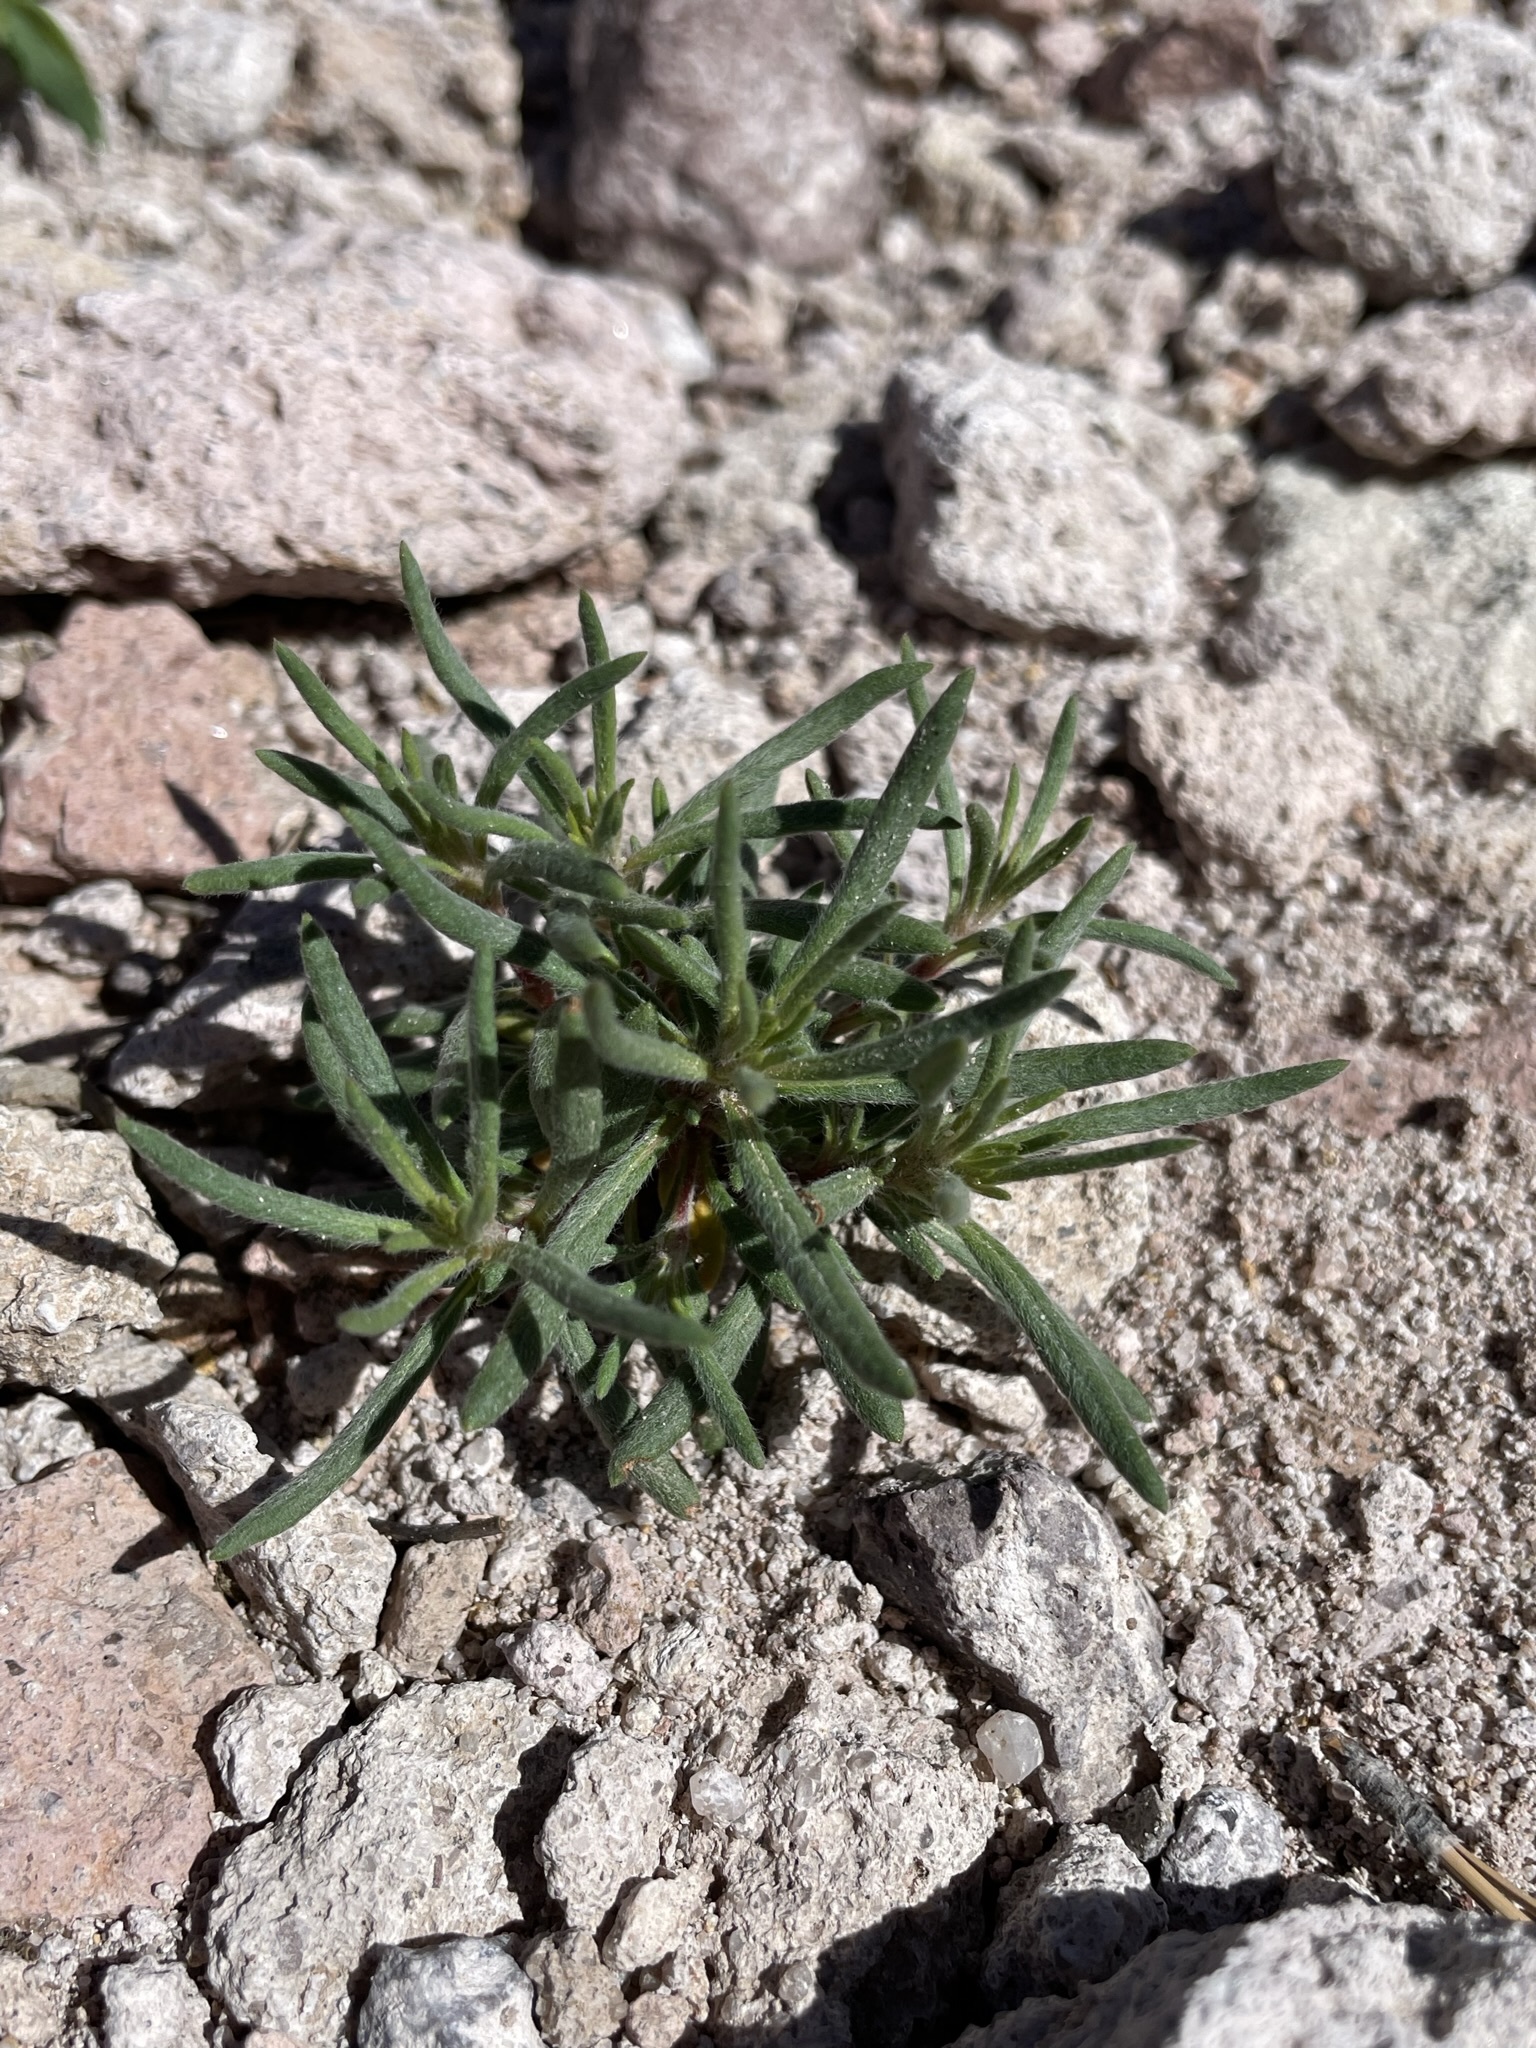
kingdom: Plantae
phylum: Tracheophyta
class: Magnoliopsida
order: Caryophyllales
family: Polygonaceae
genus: Eriogonum
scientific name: Eriogonum pharnaceoides
